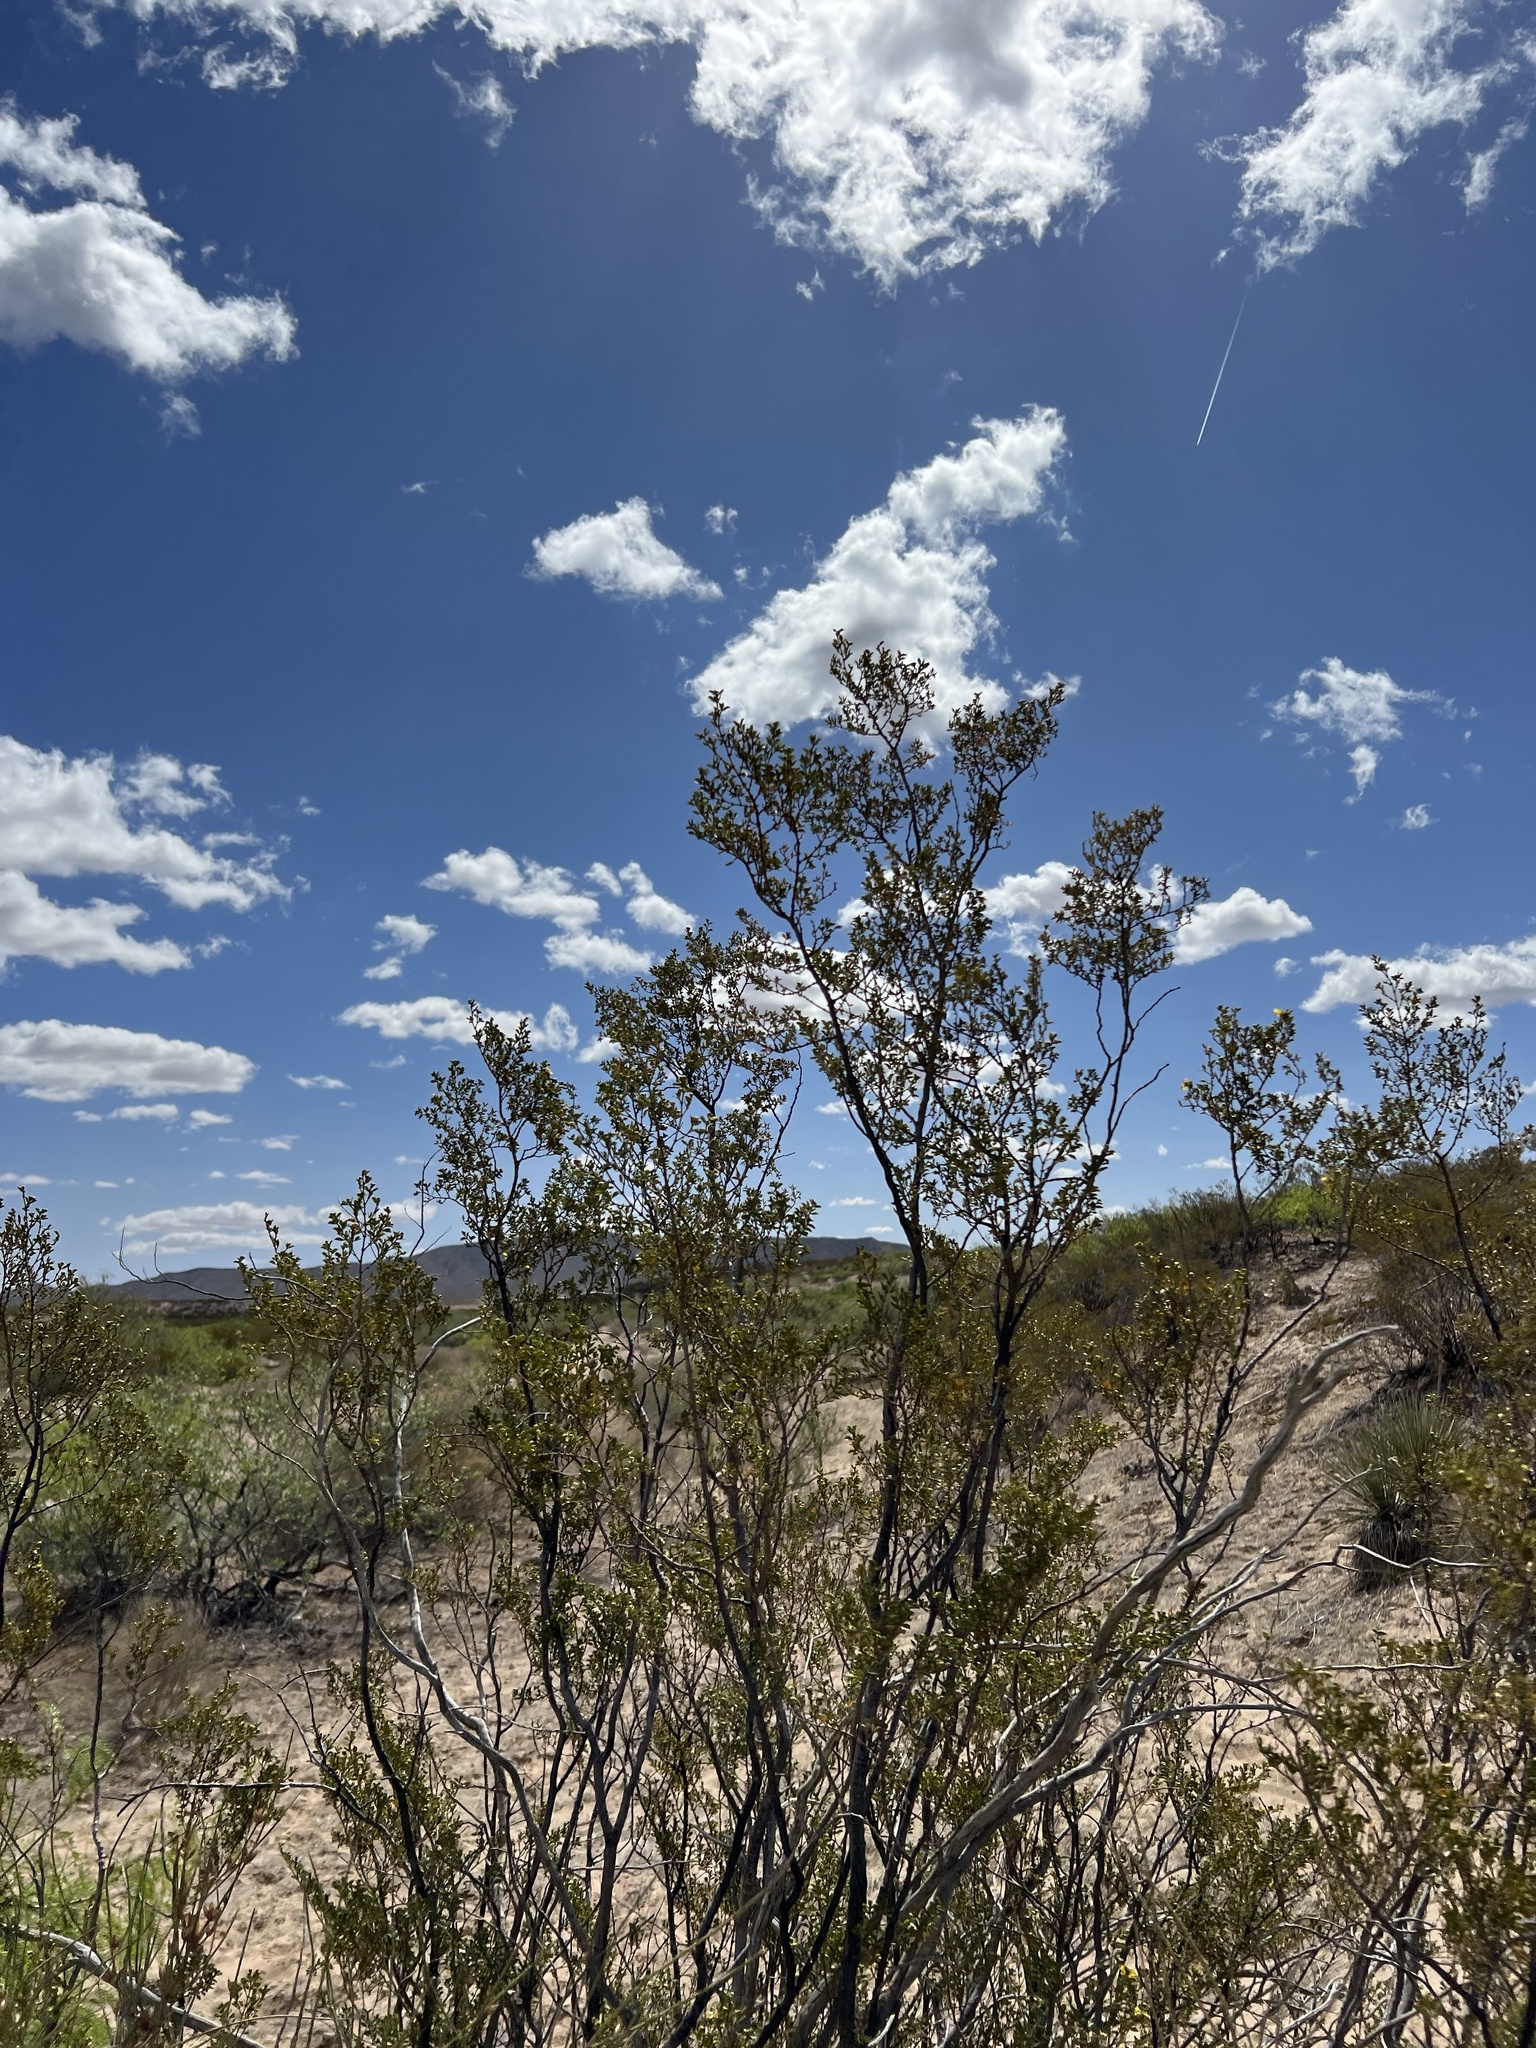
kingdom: Plantae
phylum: Tracheophyta
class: Magnoliopsida
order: Zygophyllales
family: Zygophyllaceae
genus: Larrea
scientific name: Larrea tridentata
